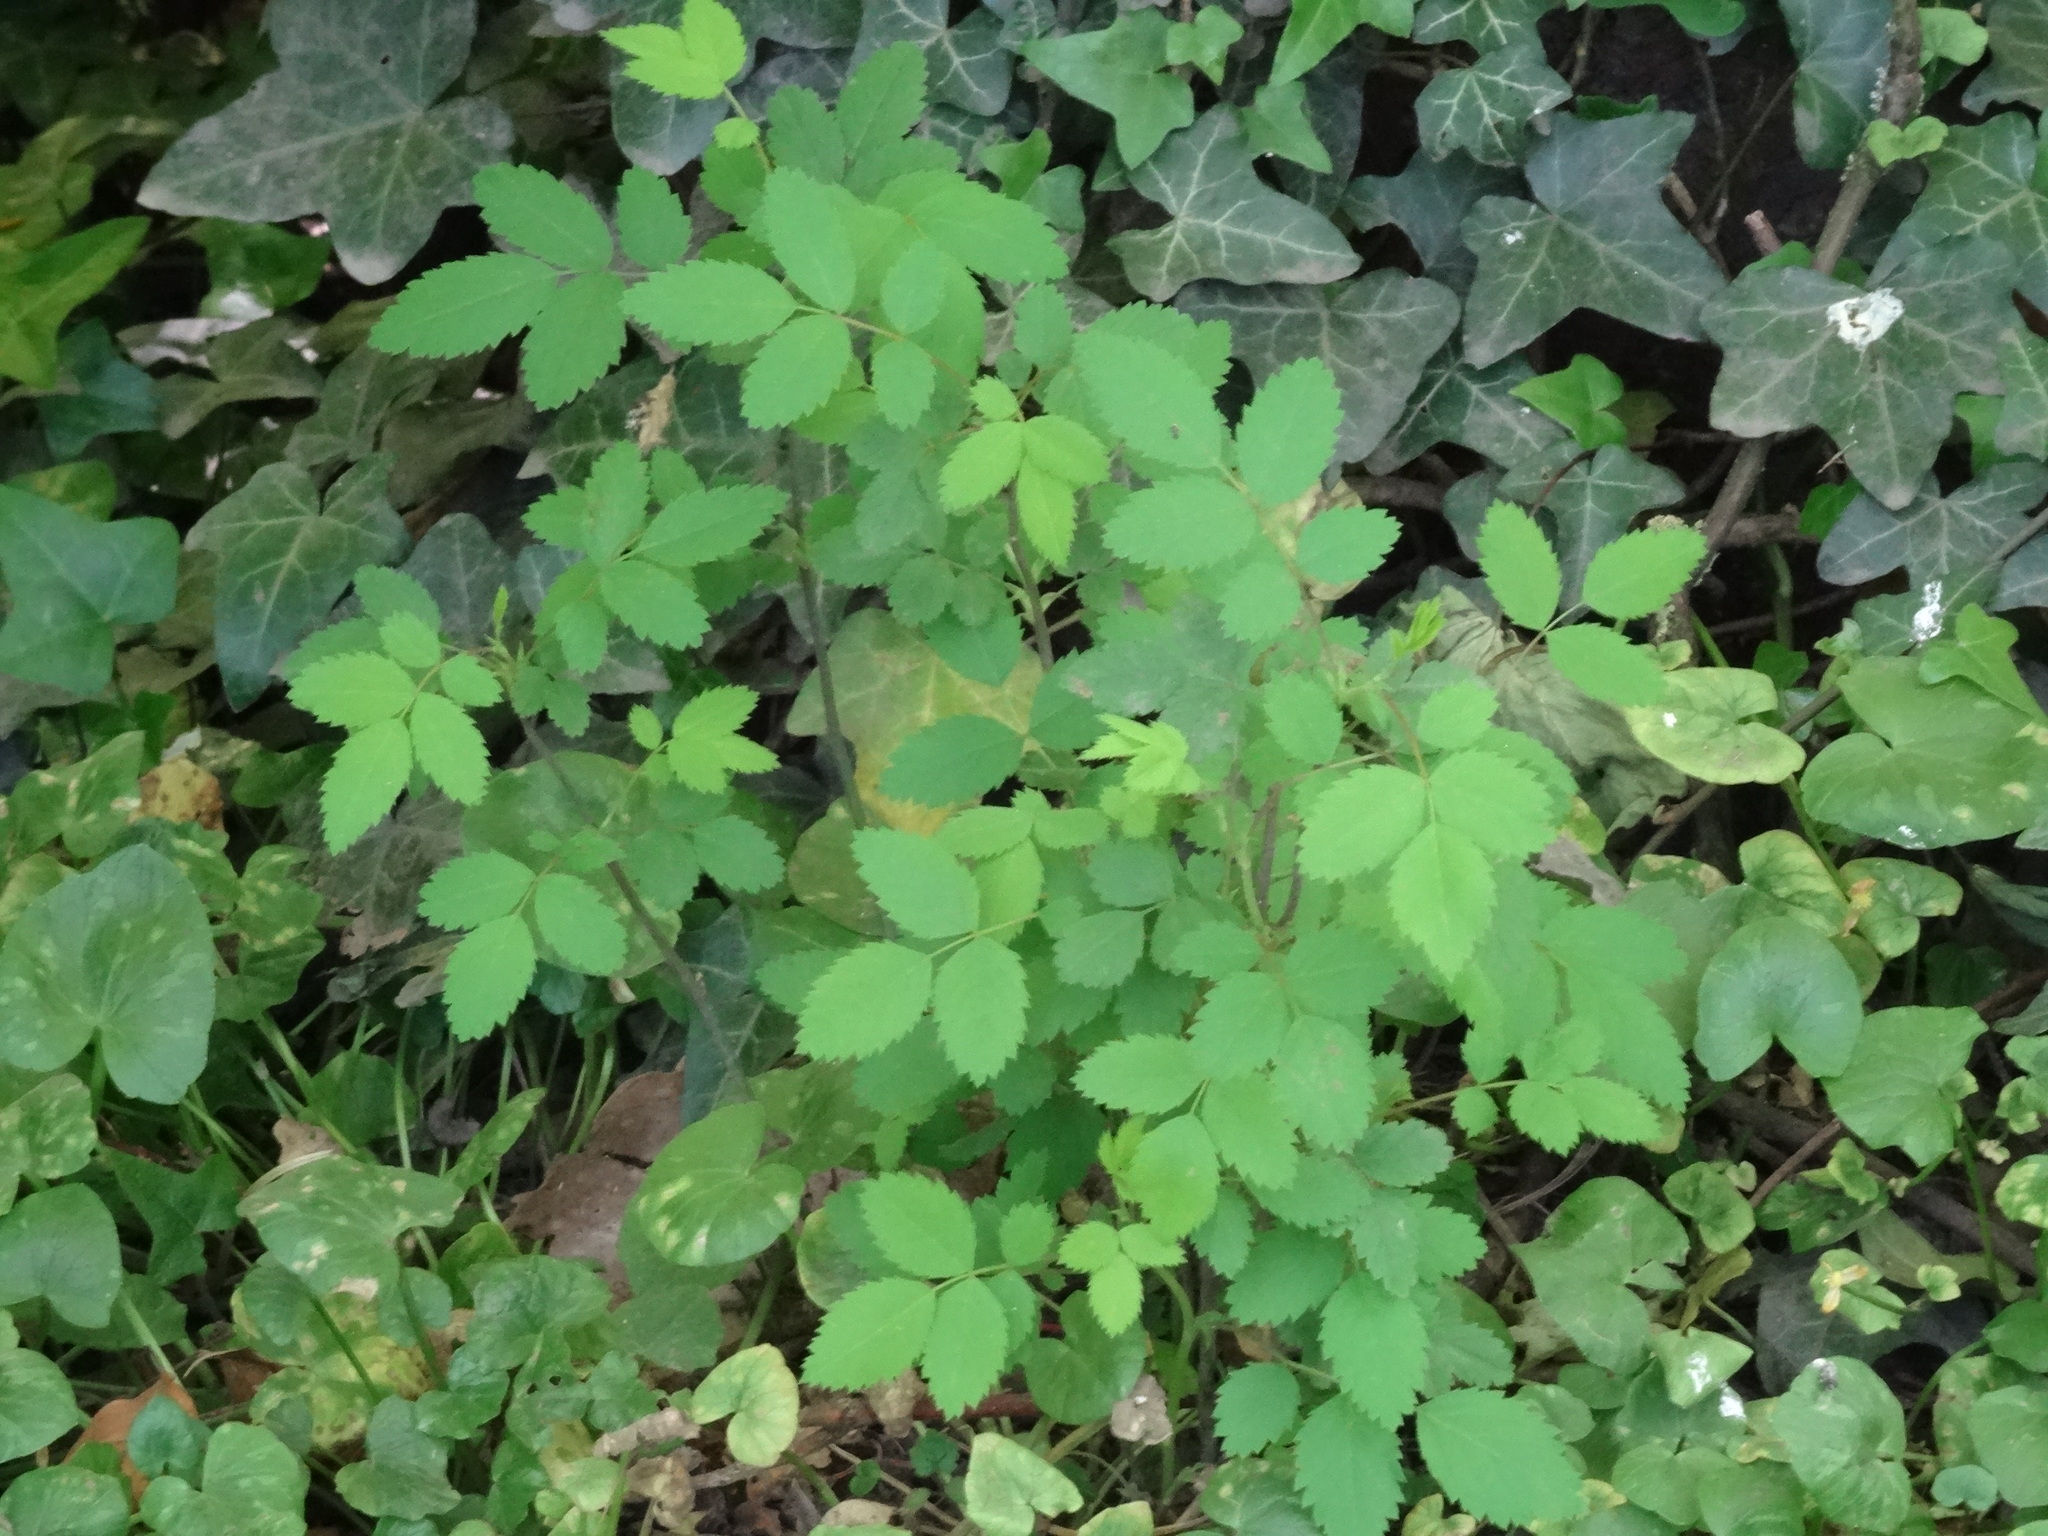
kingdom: Plantae
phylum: Tracheophyta
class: Magnoliopsida
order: Rosales
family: Rosaceae
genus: Rosa
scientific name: Rosa canina
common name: Dog rose
